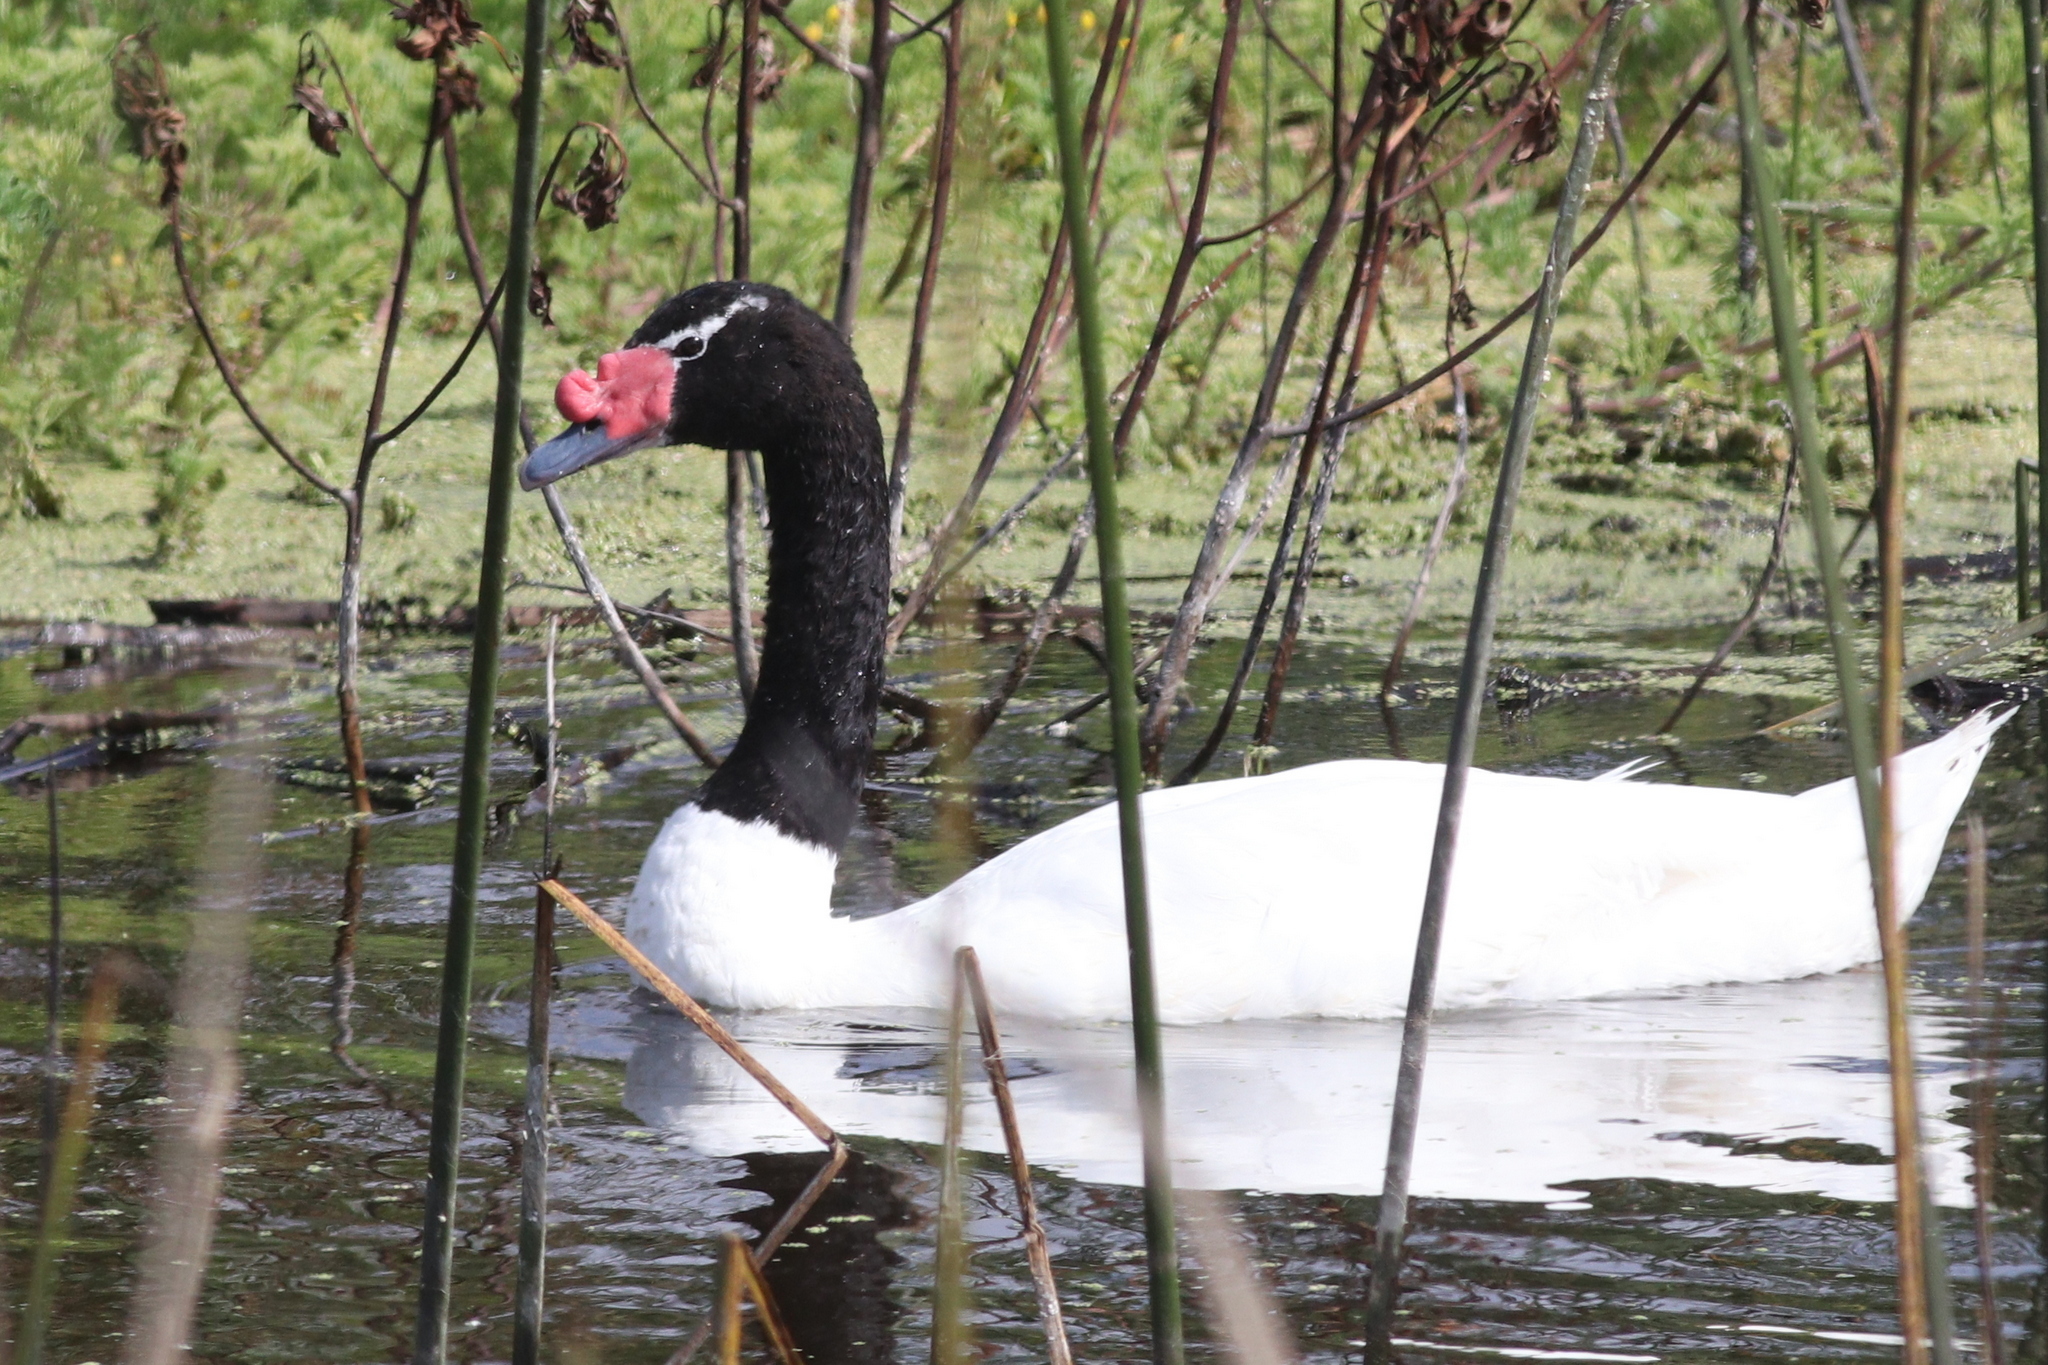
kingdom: Animalia
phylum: Chordata
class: Aves
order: Anseriformes
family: Anatidae
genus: Cygnus
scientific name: Cygnus melancoryphus
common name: Black-necked swan
